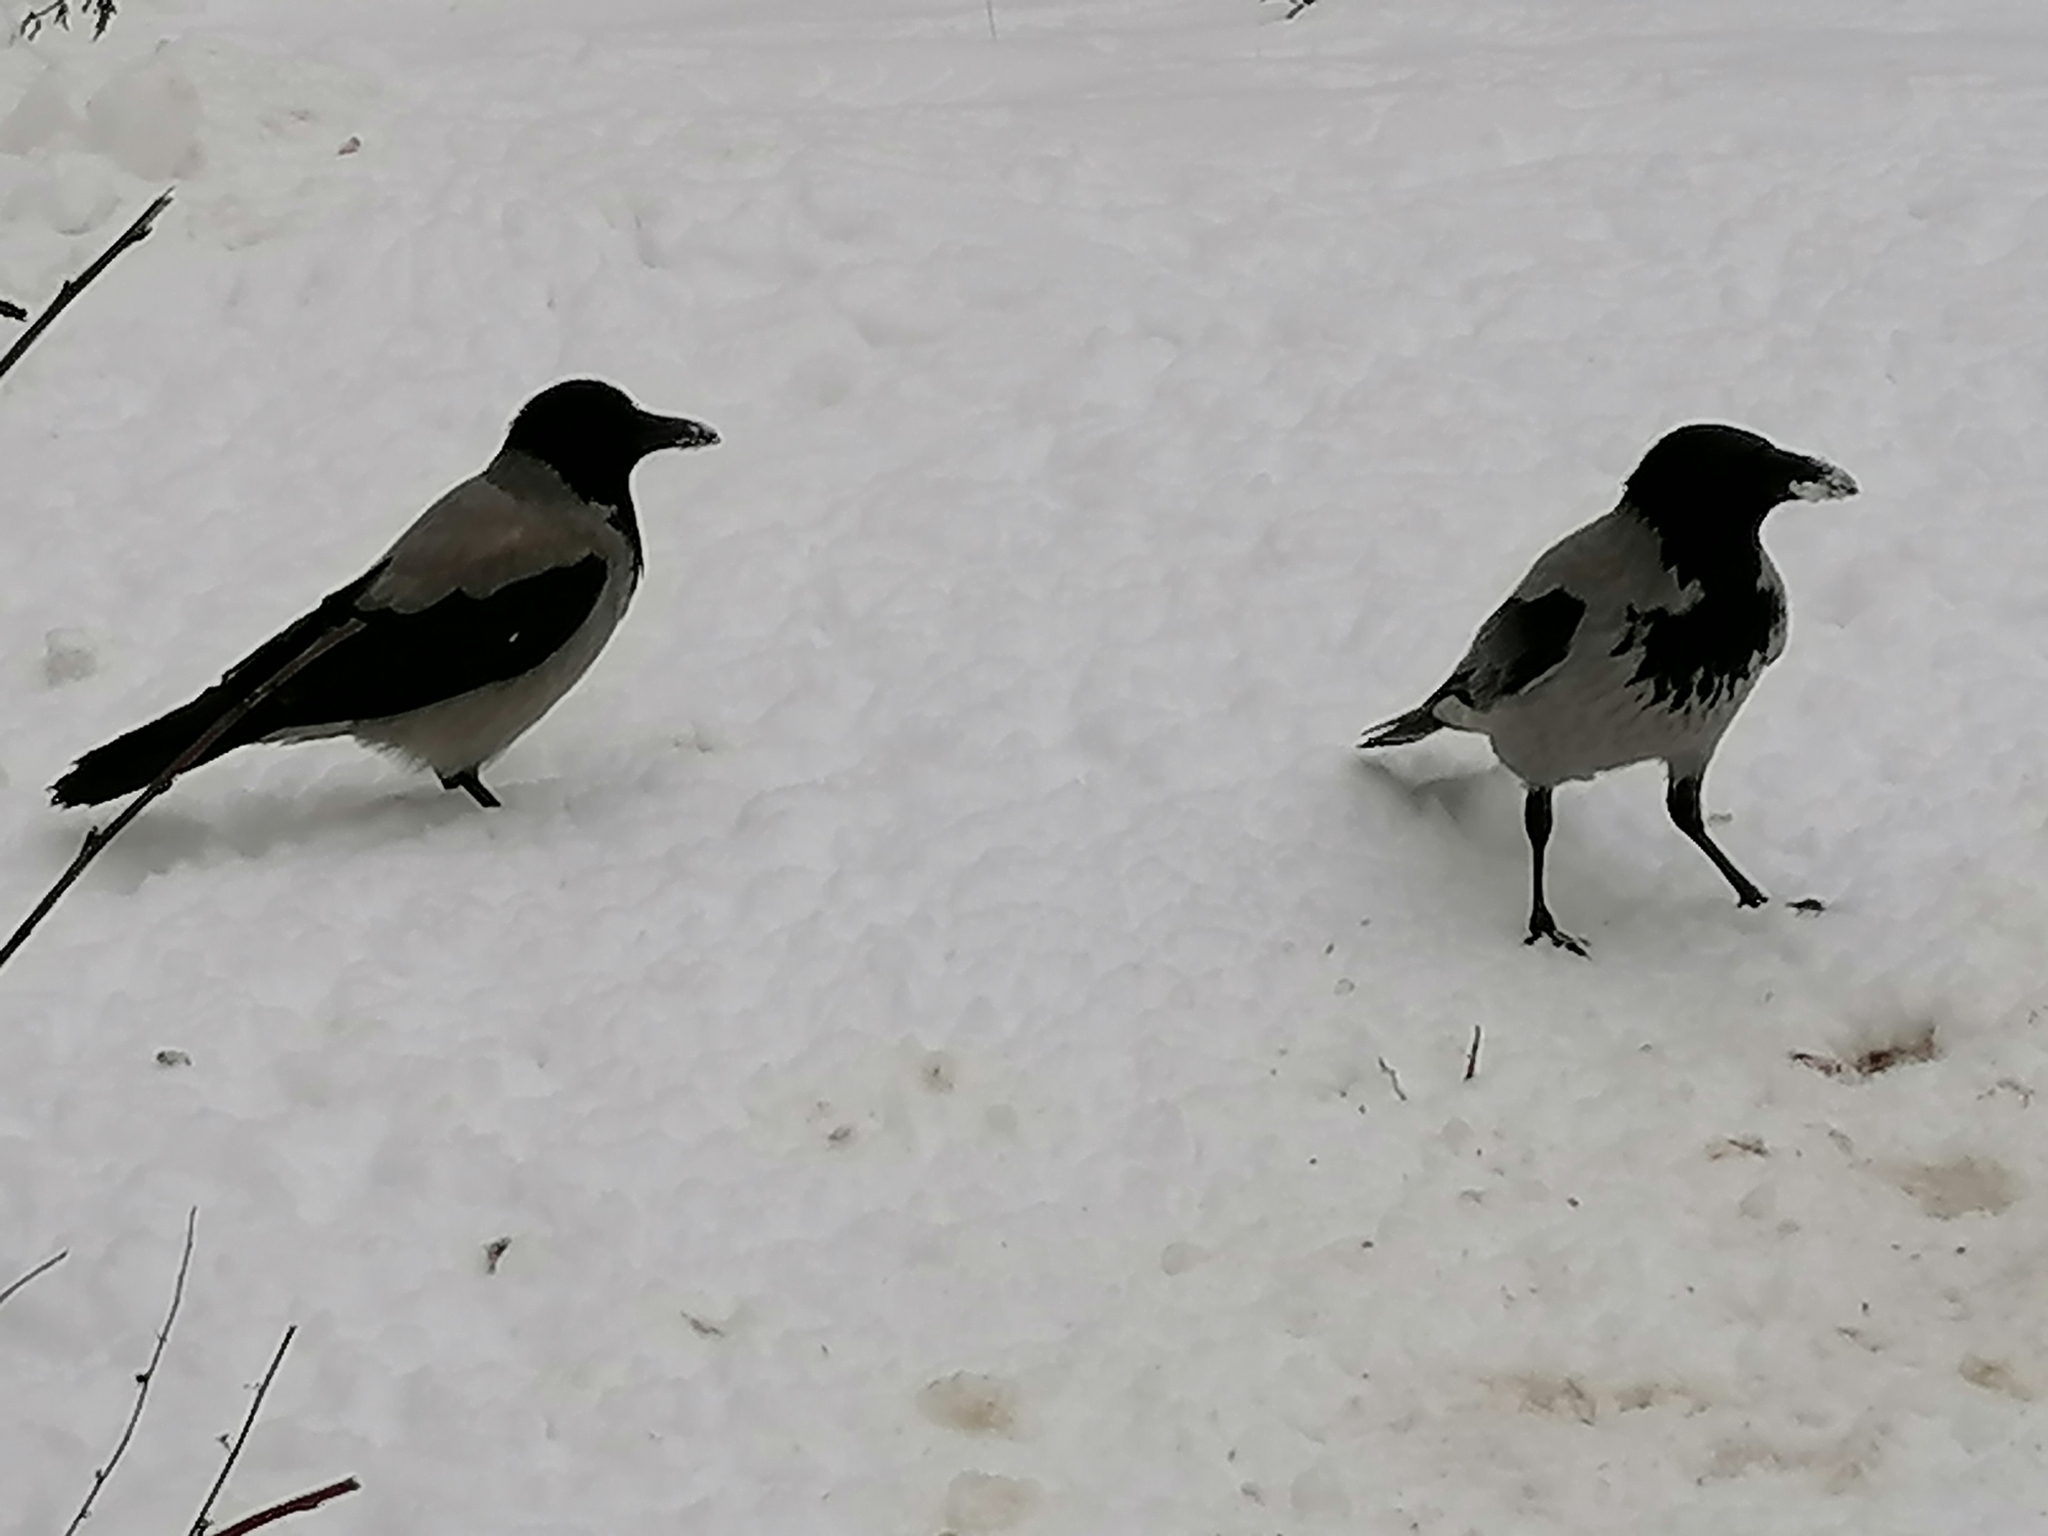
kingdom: Animalia
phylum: Chordata
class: Aves
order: Passeriformes
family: Corvidae
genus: Corvus
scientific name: Corvus cornix
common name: Hooded crow
